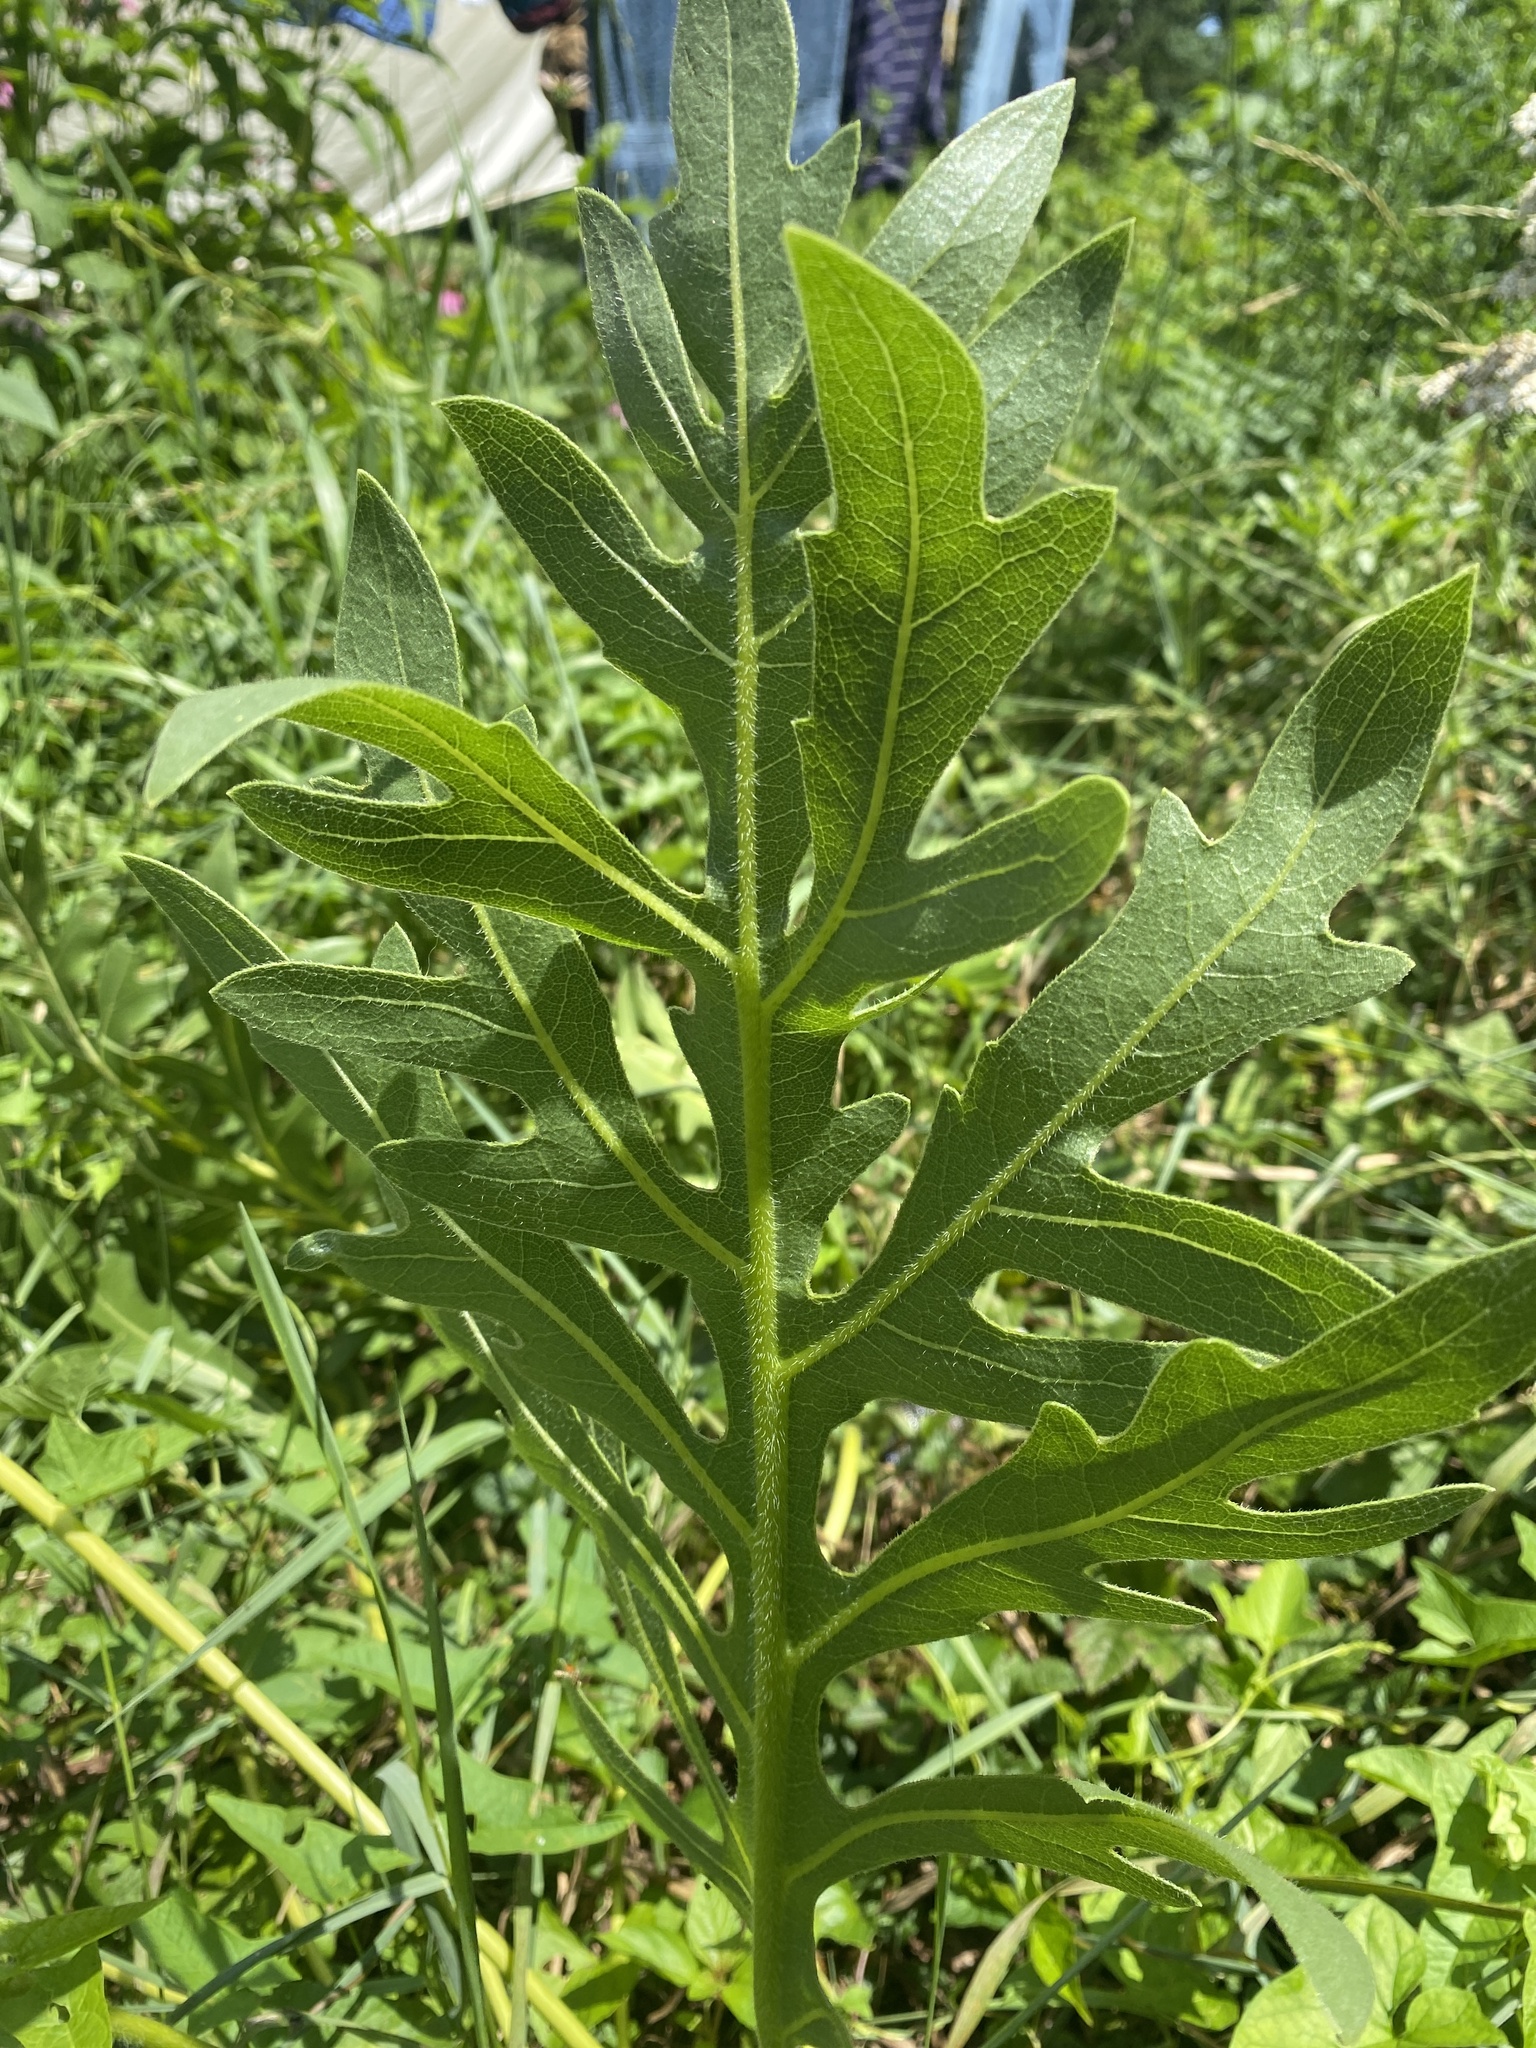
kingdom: Plantae
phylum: Tracheophyta
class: Magnoliopsida
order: Asterales
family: Asteraceae
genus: Silphium
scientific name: Silphium laciniatum
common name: Polarplant
